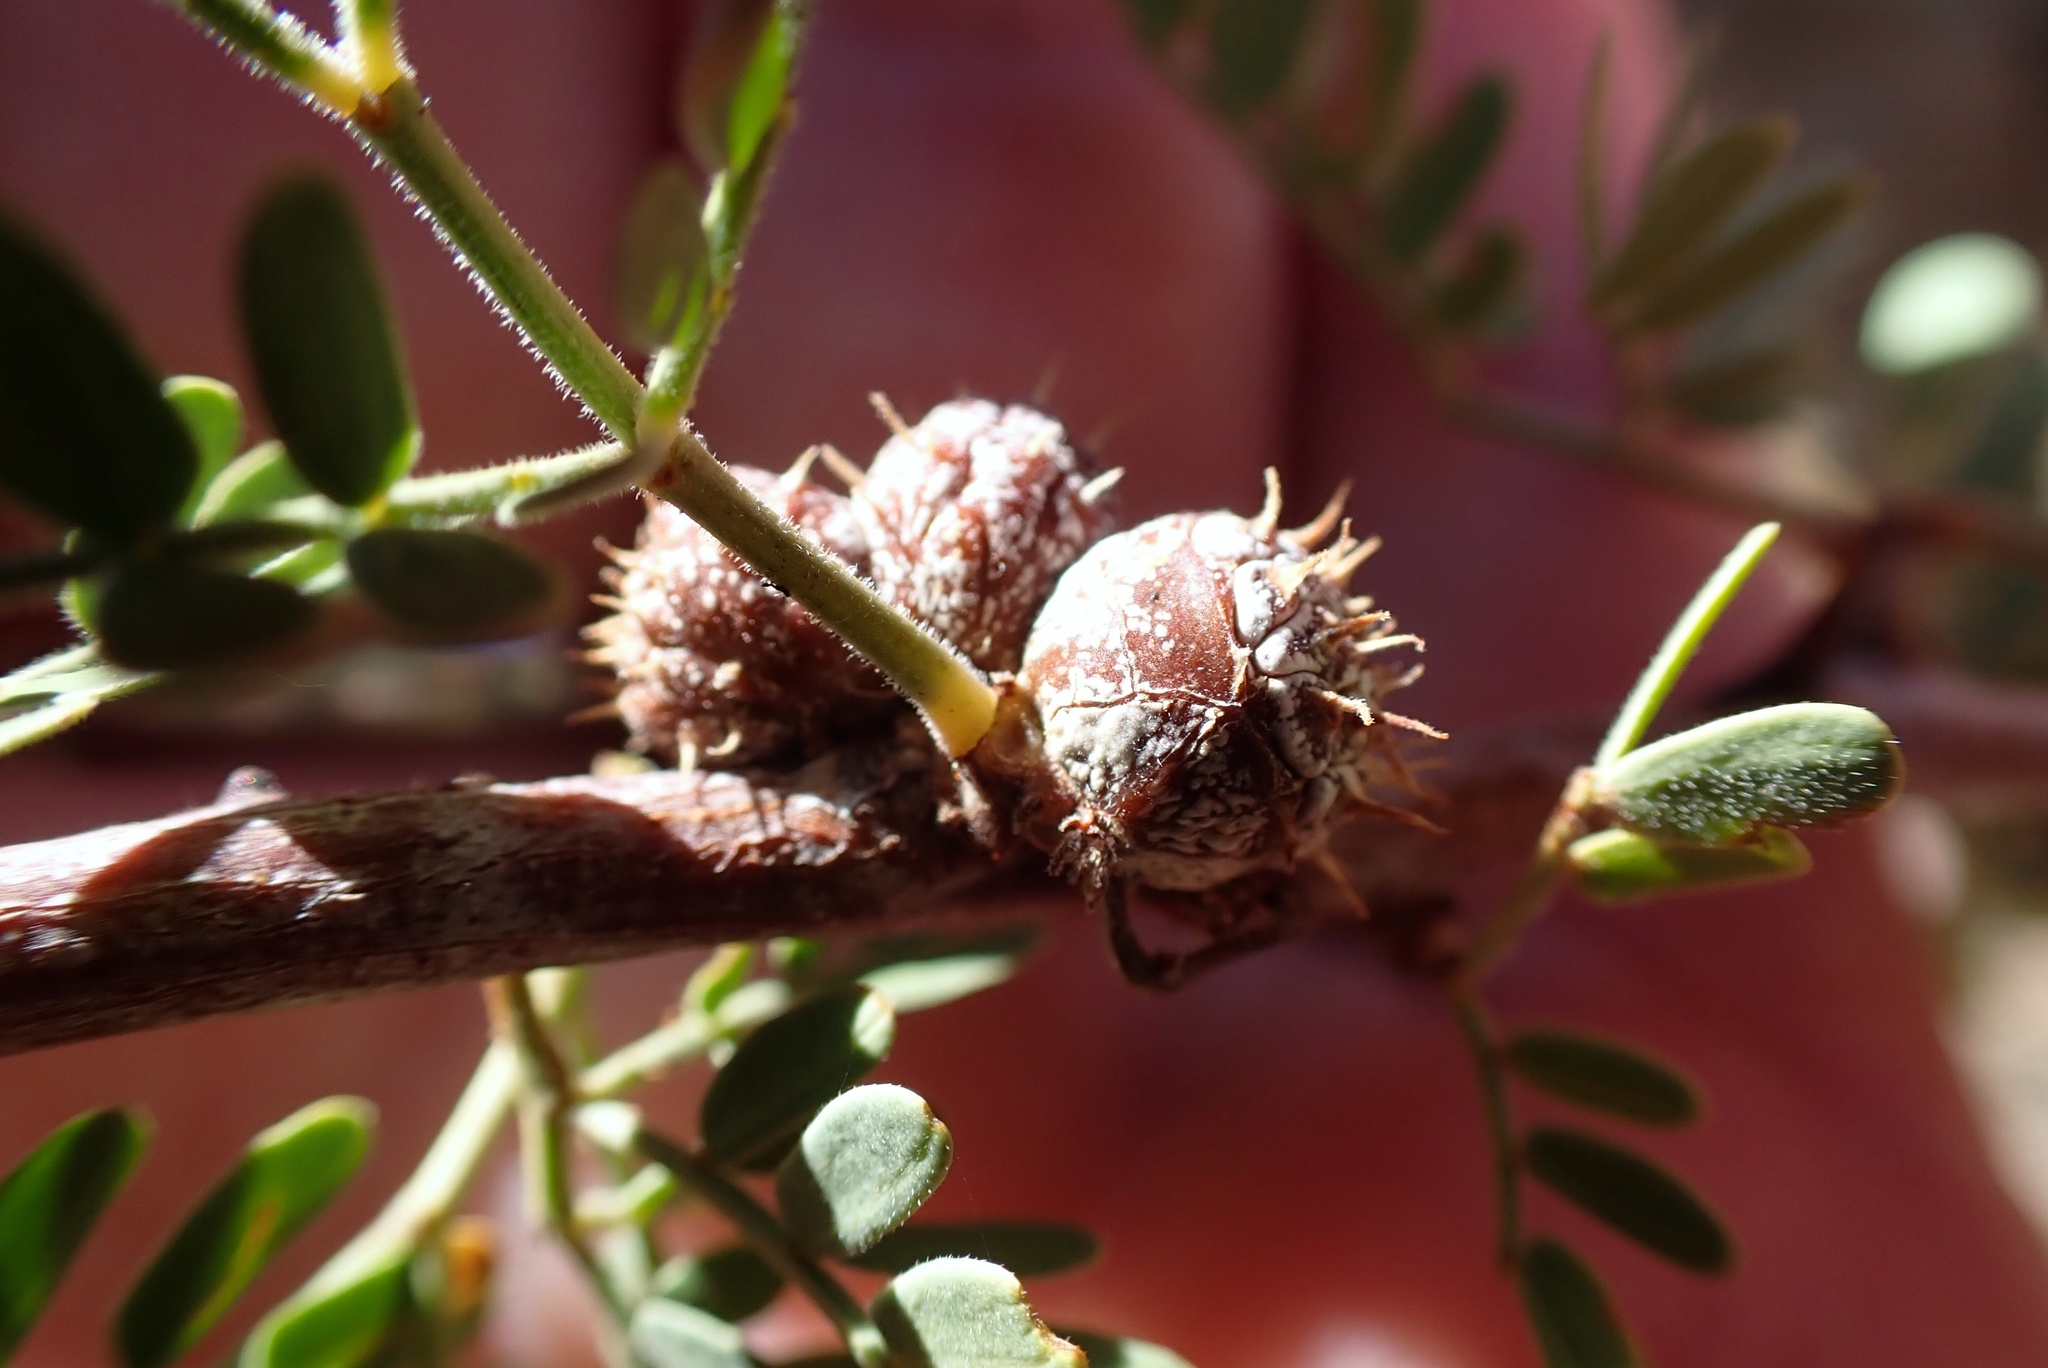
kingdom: Animalia
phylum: Arthropoda
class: Insecta
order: Hymenoptera
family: Tanaostigmatidae
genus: Tanaostigmodes
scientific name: Tanaostigmodes howardii
